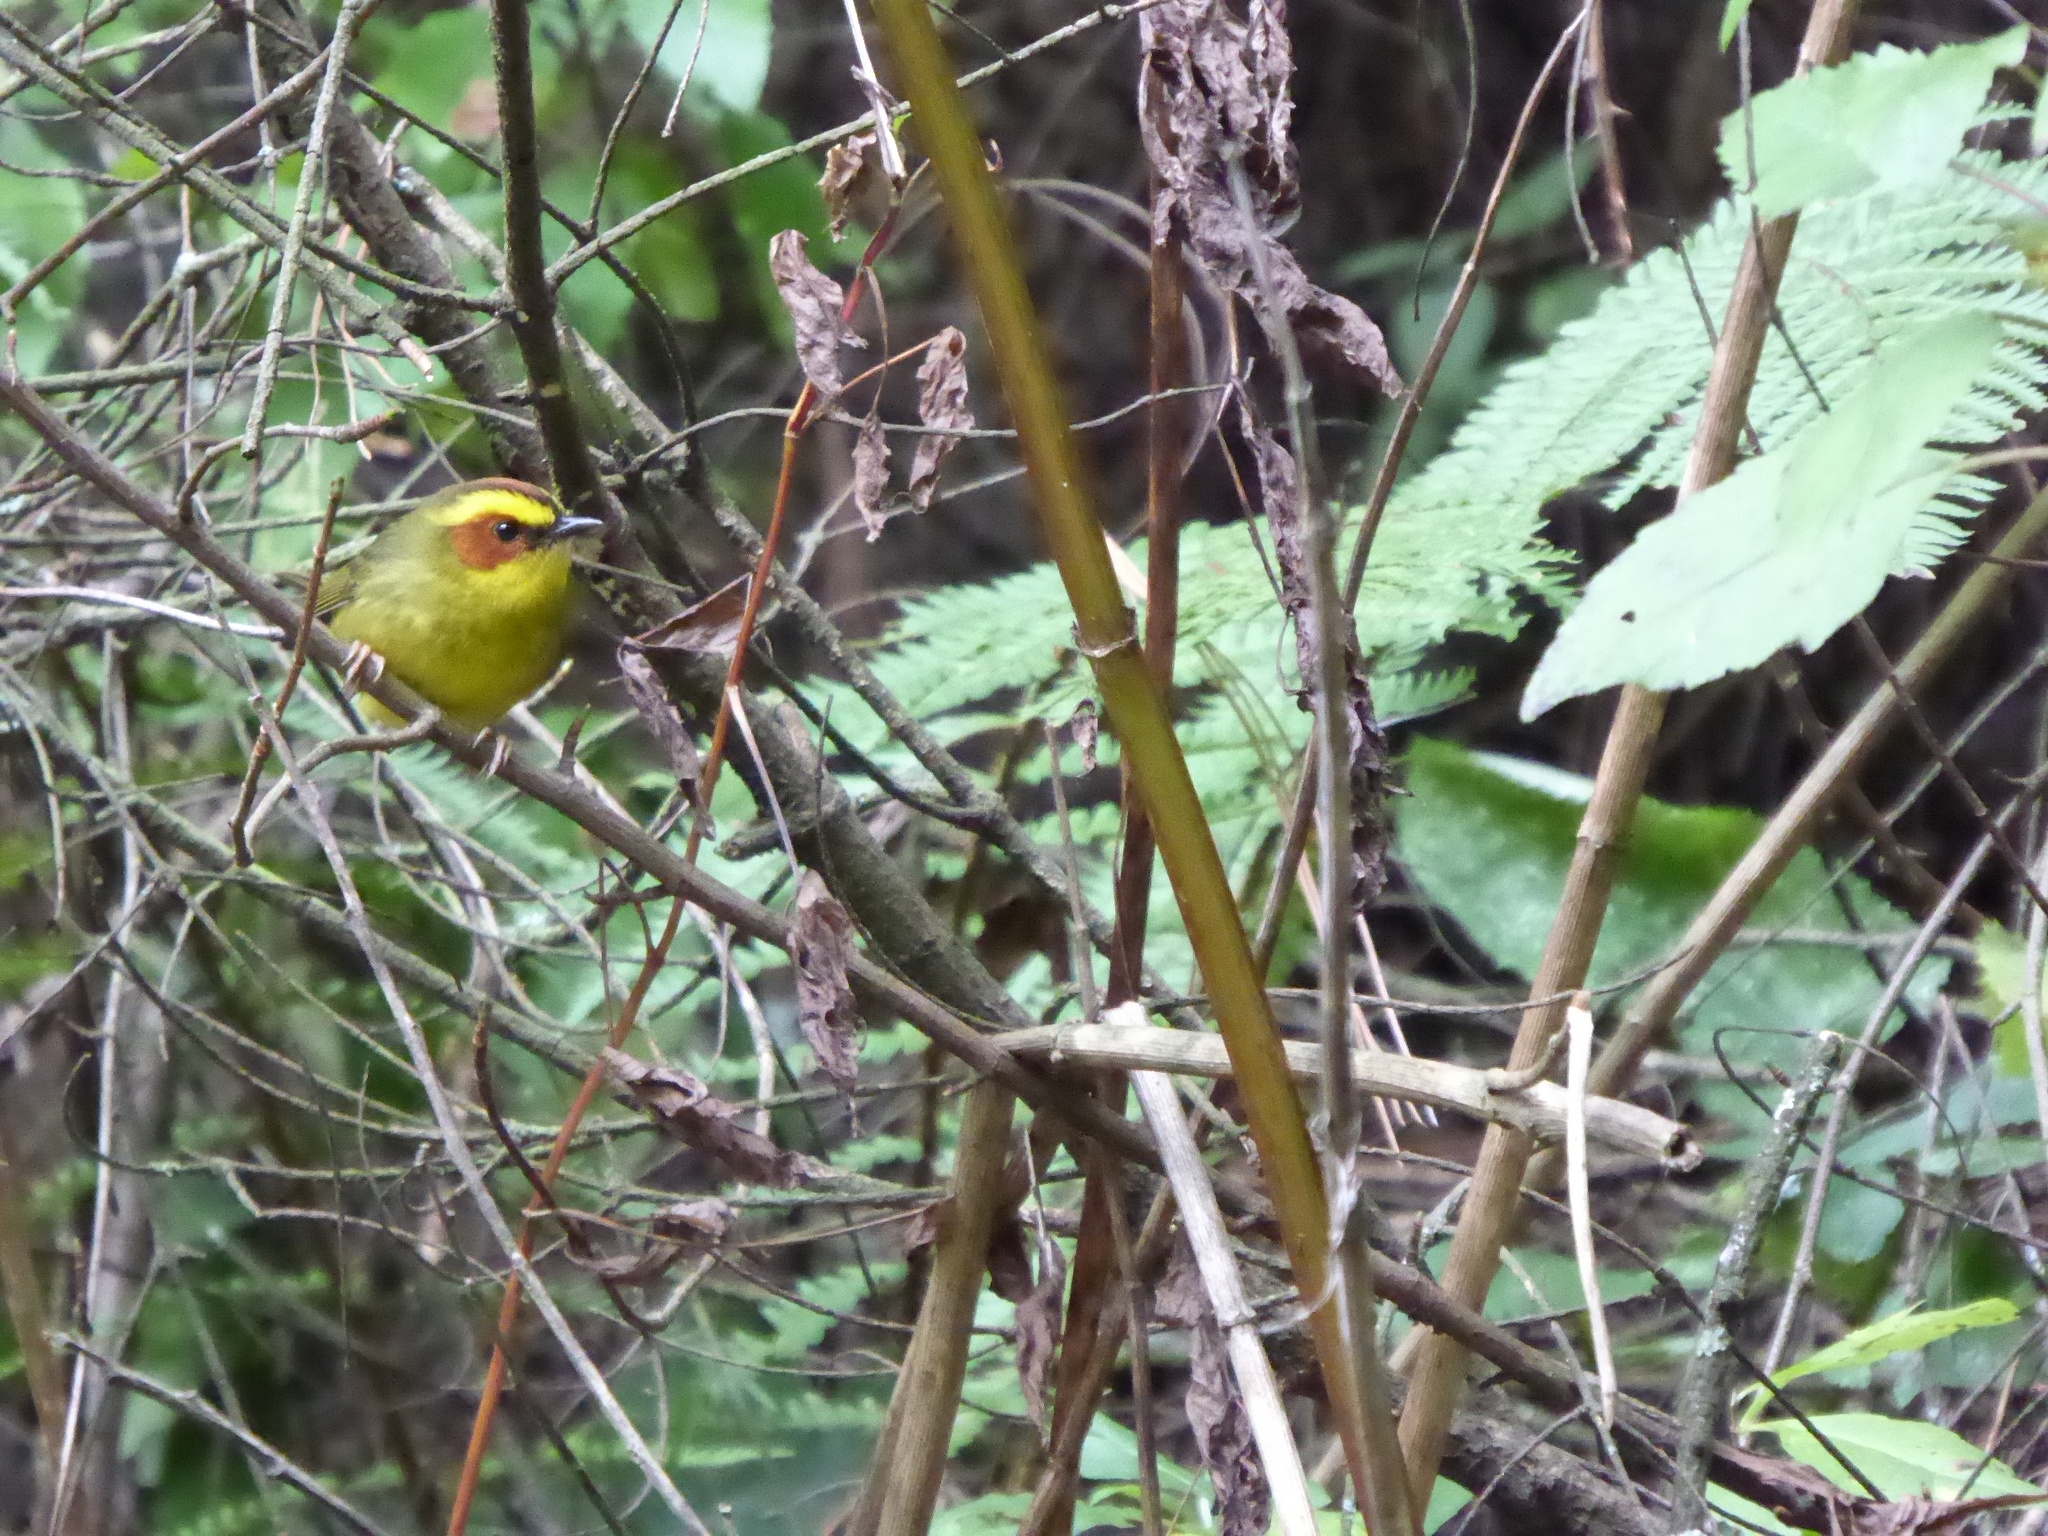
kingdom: Animalia
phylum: Chordata
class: Aves
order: Passeriformes
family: Parulidae
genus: Basileuterus
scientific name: Basileuterus belli
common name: Golden-browed warbler
